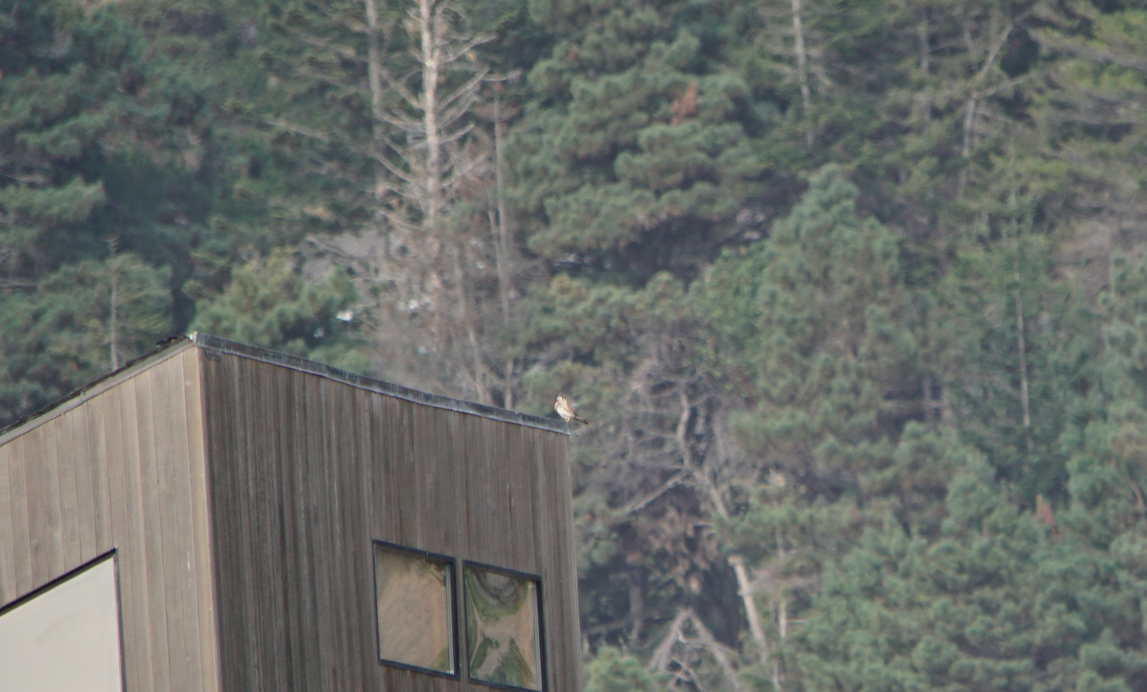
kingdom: Animalia
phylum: Chordata
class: Aves
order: Falconiformes
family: Falconidae
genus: Falco
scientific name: Falco sparverius
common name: American kestrel
